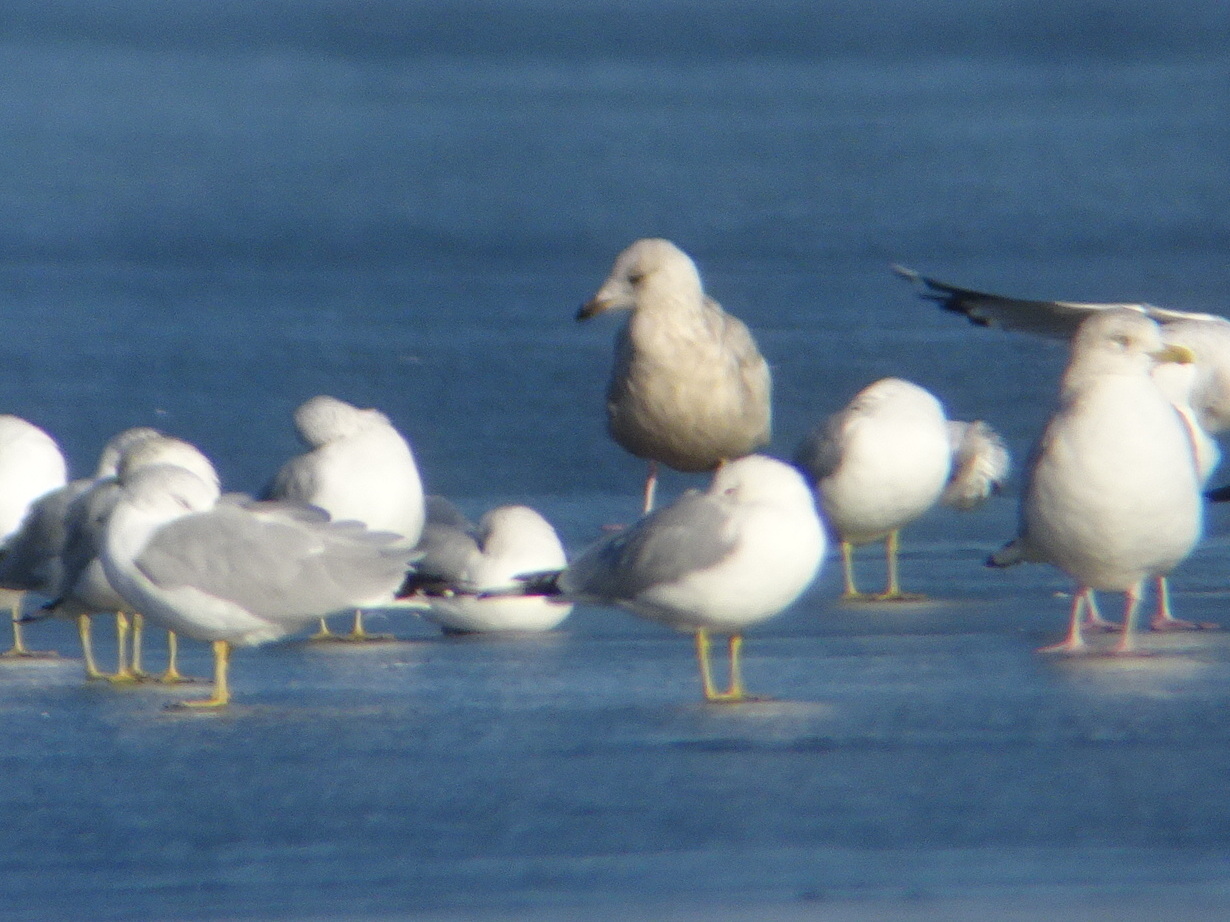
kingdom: Animalia
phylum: Chordata
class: Aves
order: Charadriiformes
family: Laridae
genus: Larus
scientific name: Larus glaucoides
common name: Iceland gull
